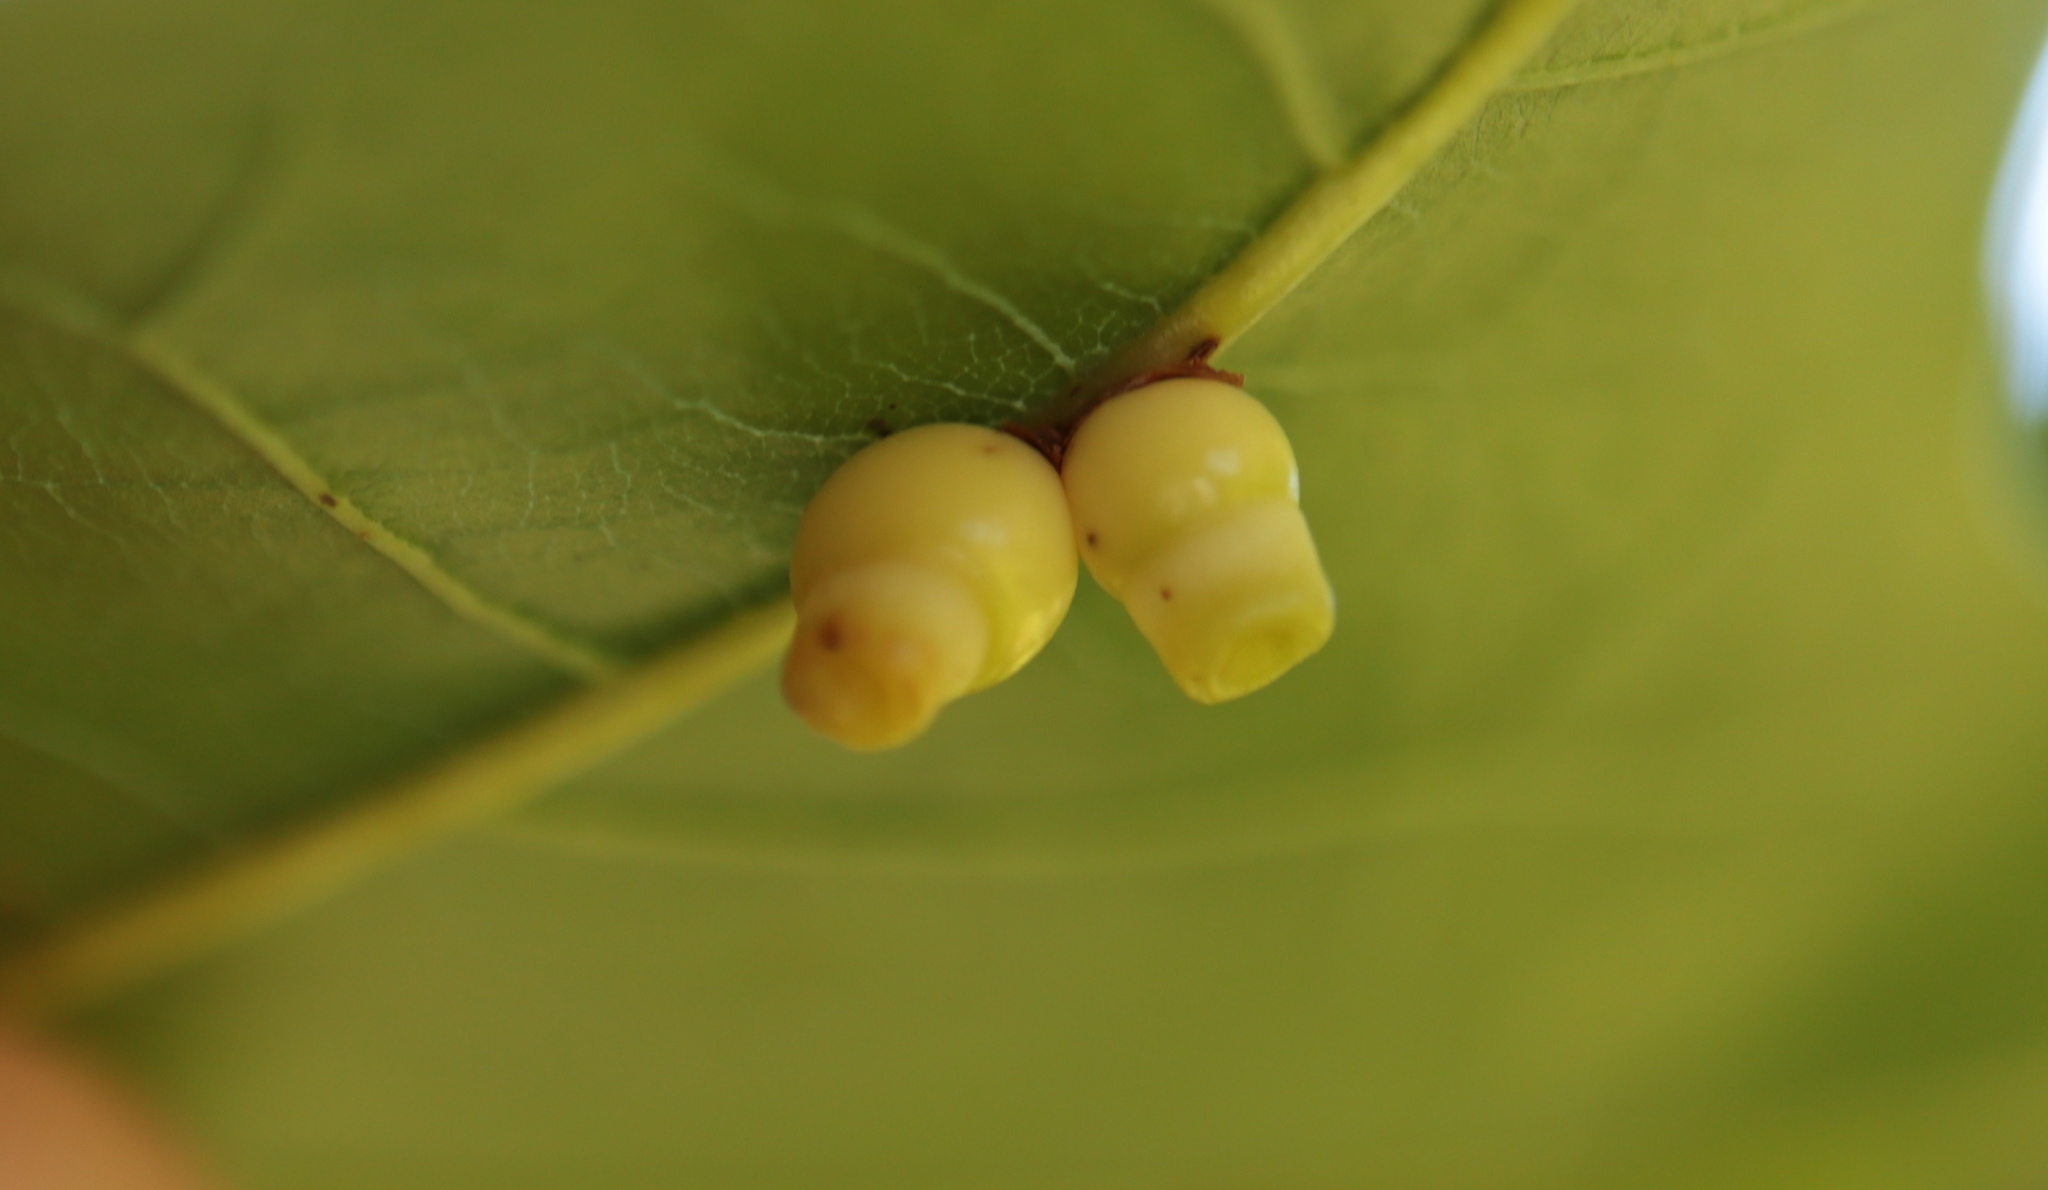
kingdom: Animalia
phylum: Arthropoda
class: Insecta
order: Hymenoptera
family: Cynipidae
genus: Kokkocynips
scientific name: Kokkocynips rileyi
